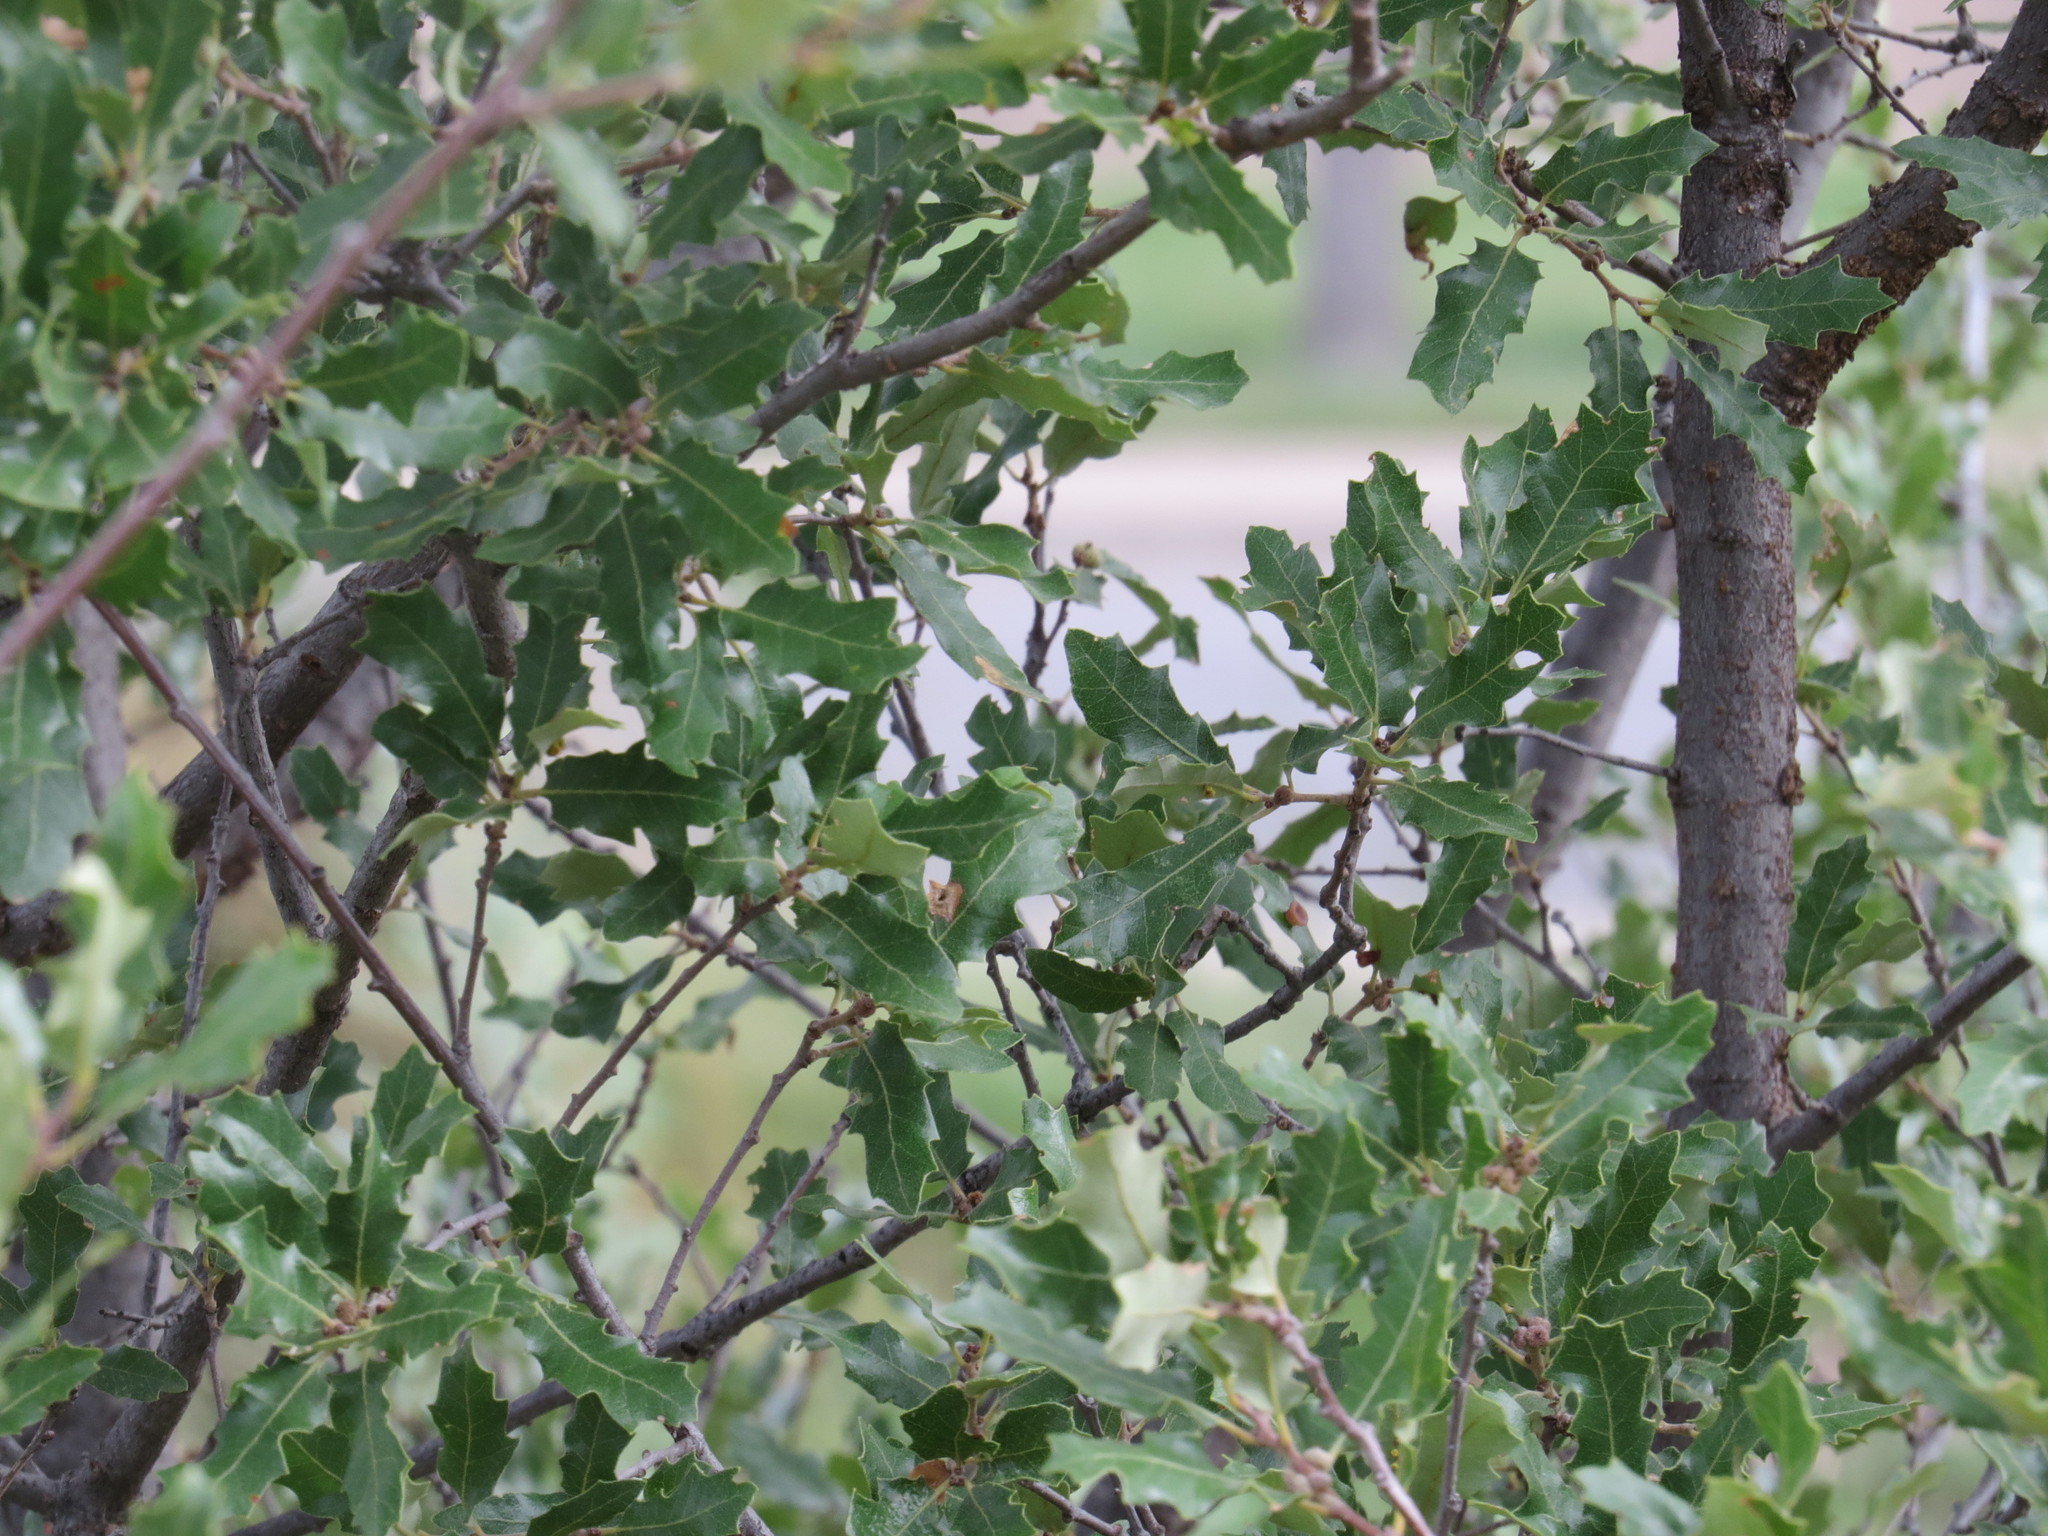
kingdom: Plantae
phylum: Tracheophyta
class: Magnoliopsida
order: Fagales
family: Fagaceae
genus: Quercus
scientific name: Quercus vaseyana
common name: Sandpaper oak
